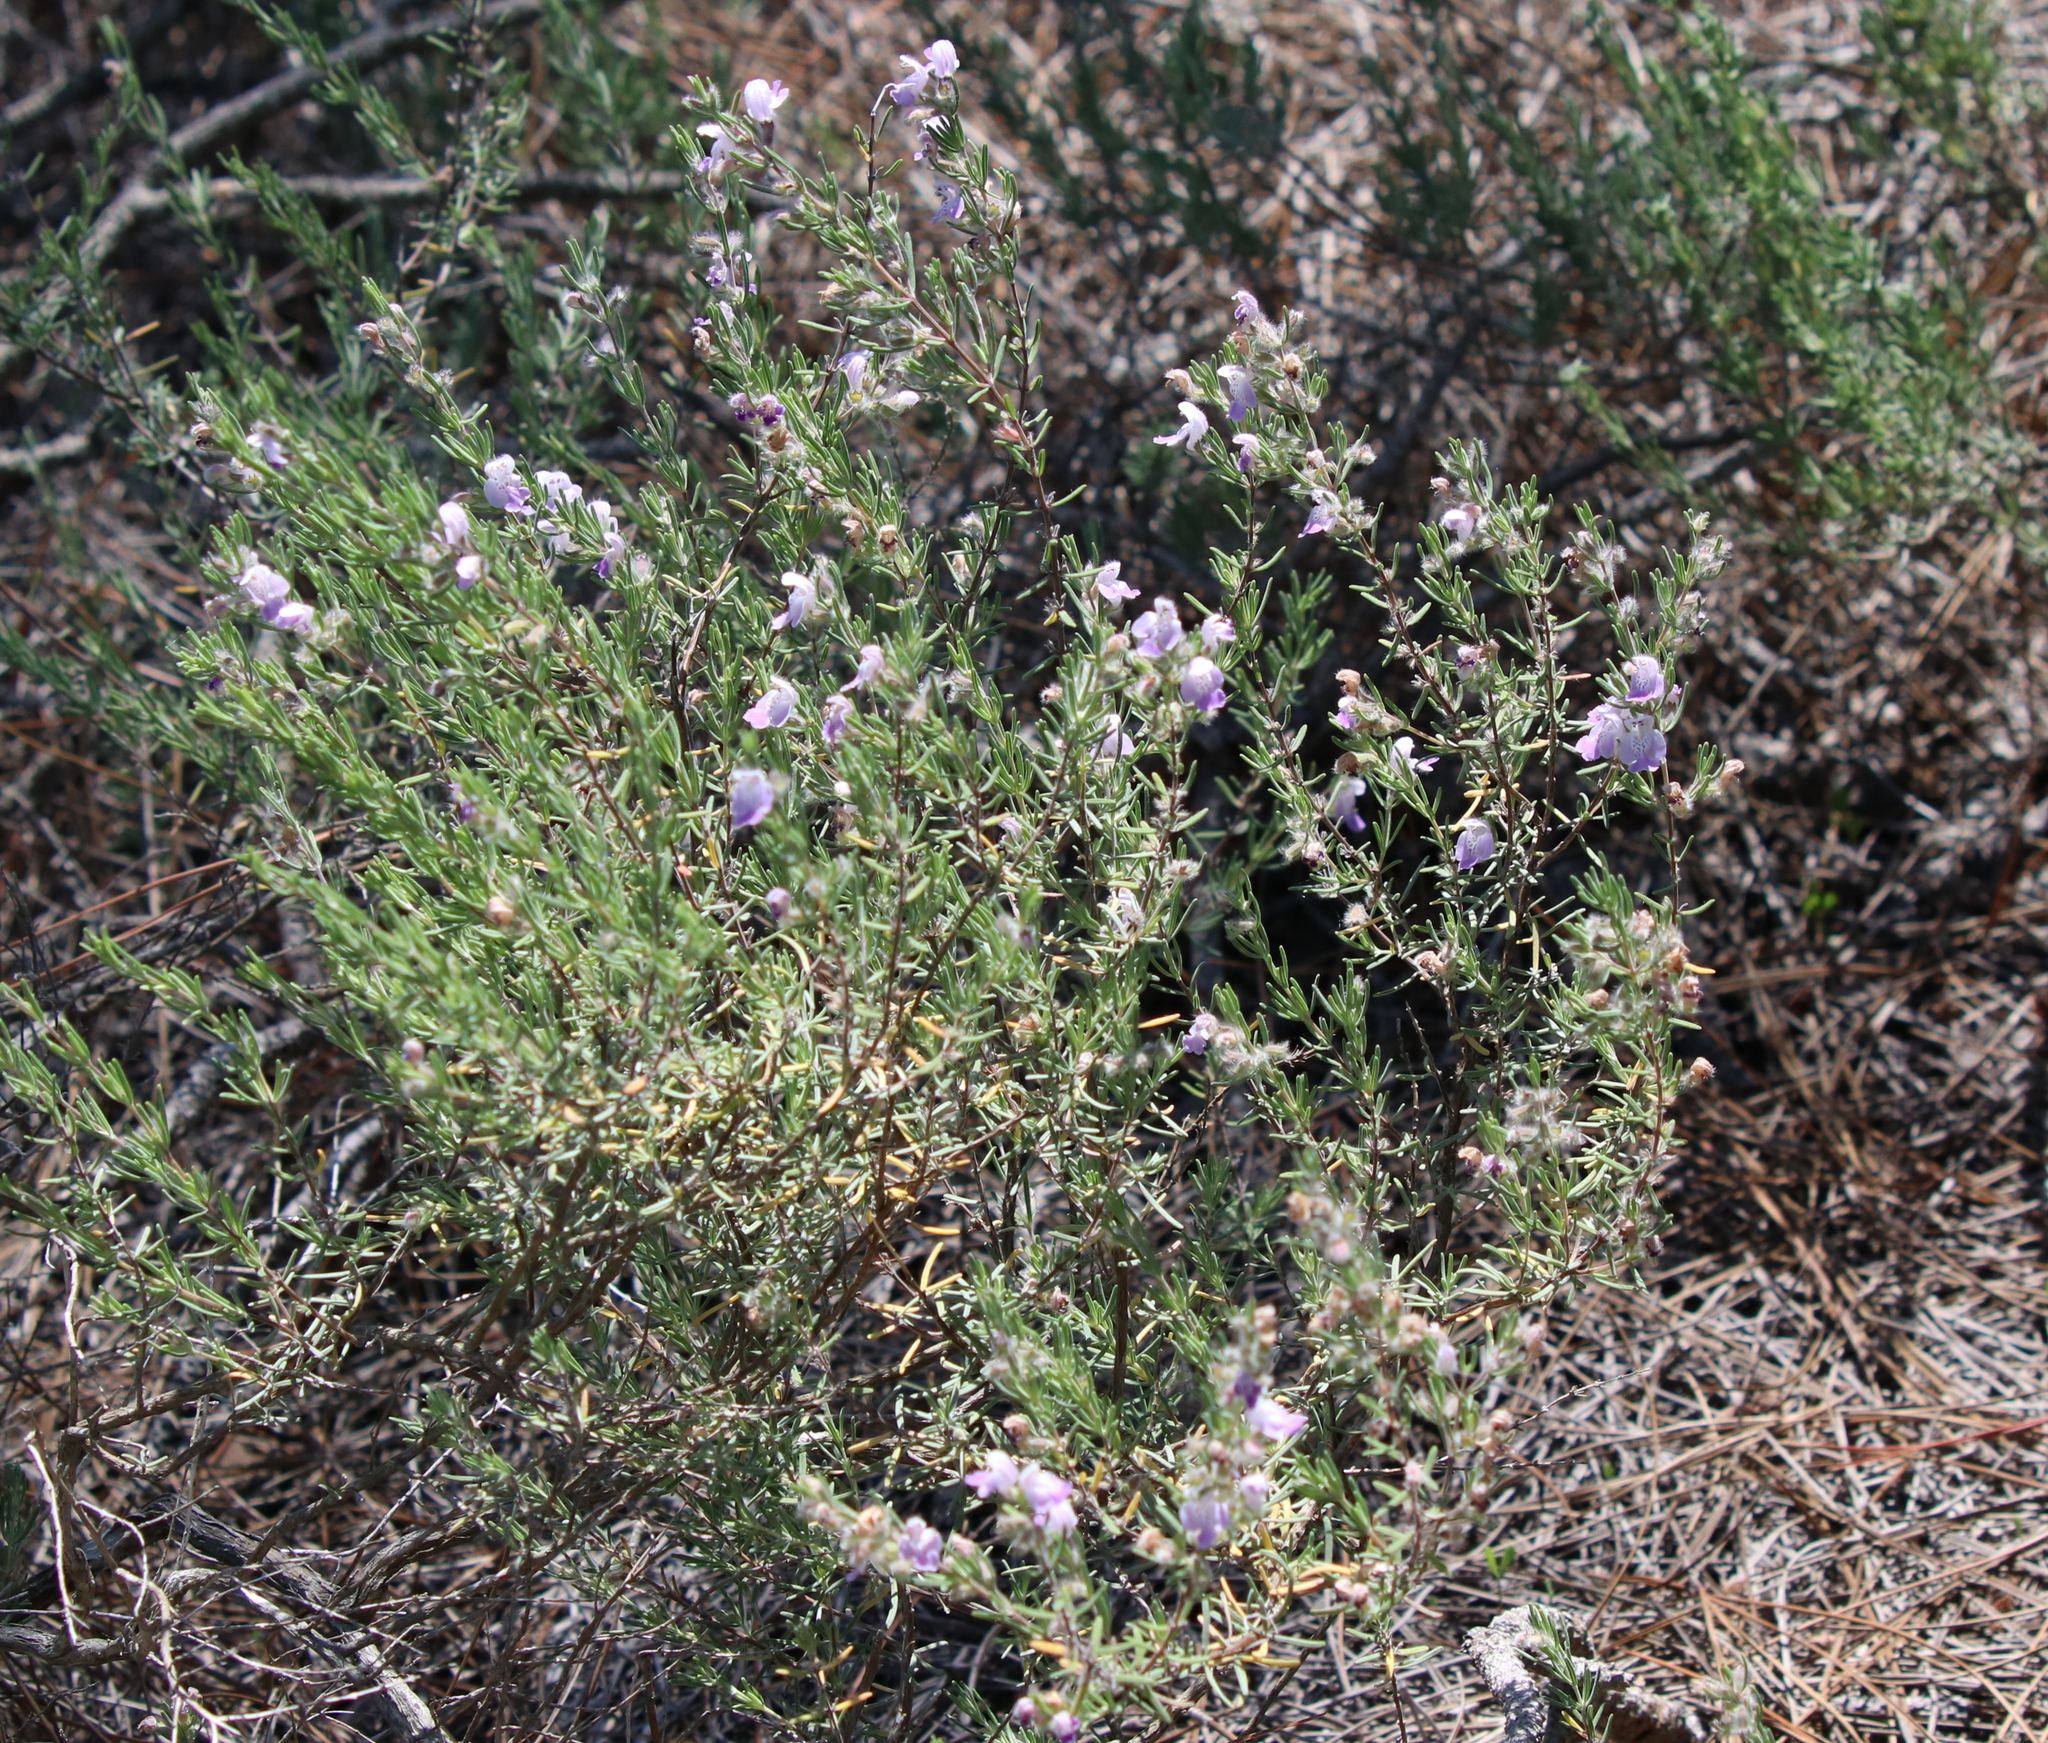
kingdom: Plantae
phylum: Tracheophyta
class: Magnoliopsida
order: Lamiales
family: Lamiaceae
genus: Conradina
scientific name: Conradina canescens
